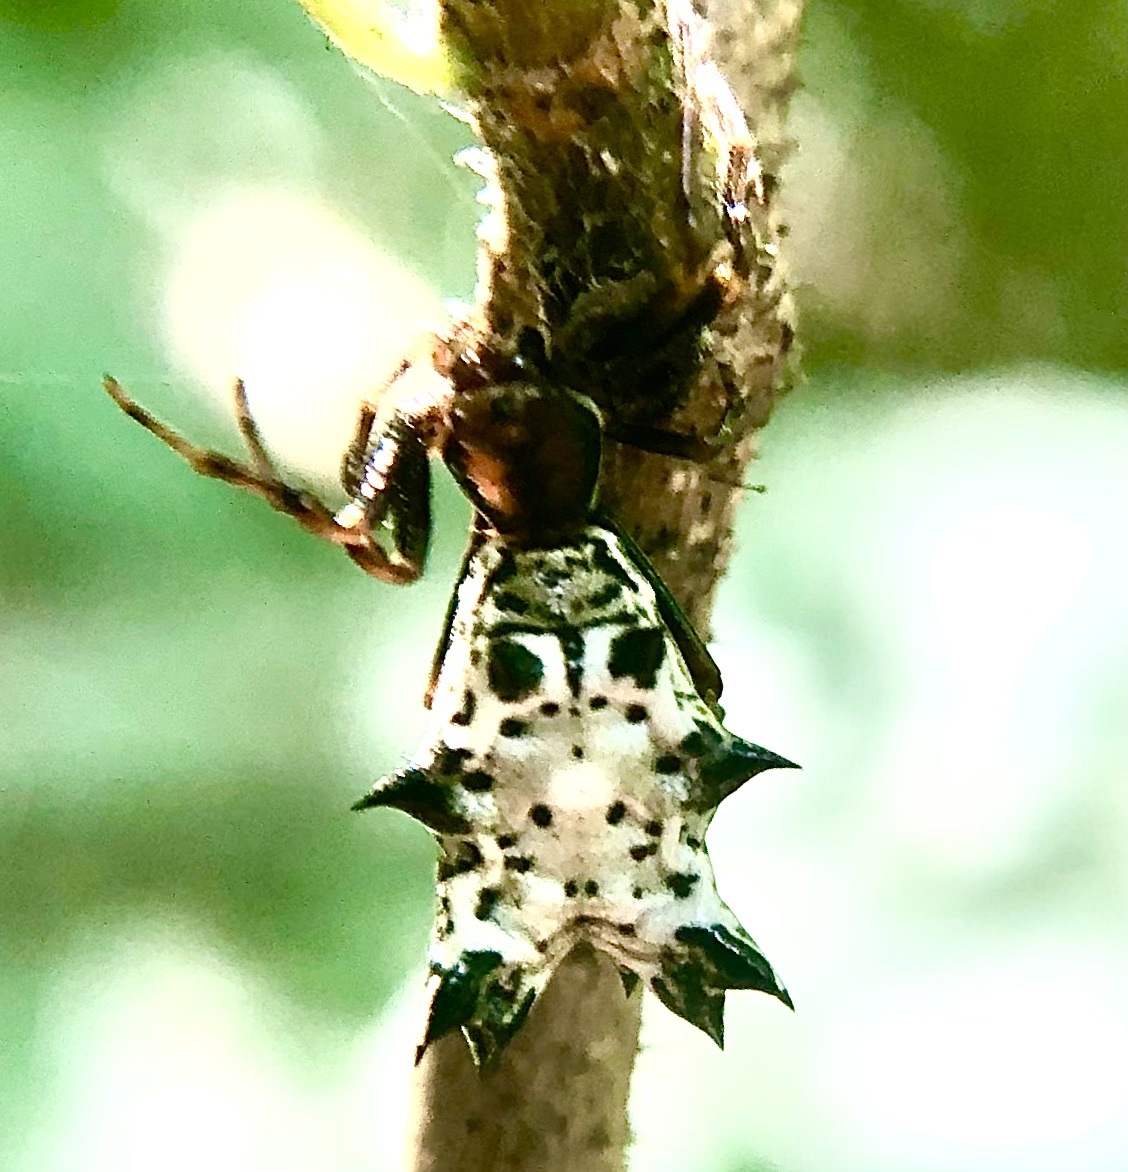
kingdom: Animalia
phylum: Arthropoda
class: Arachnida
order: Araneae
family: Araneidae
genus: Micrathena
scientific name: Micrathena gracilis
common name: Orb weavers
